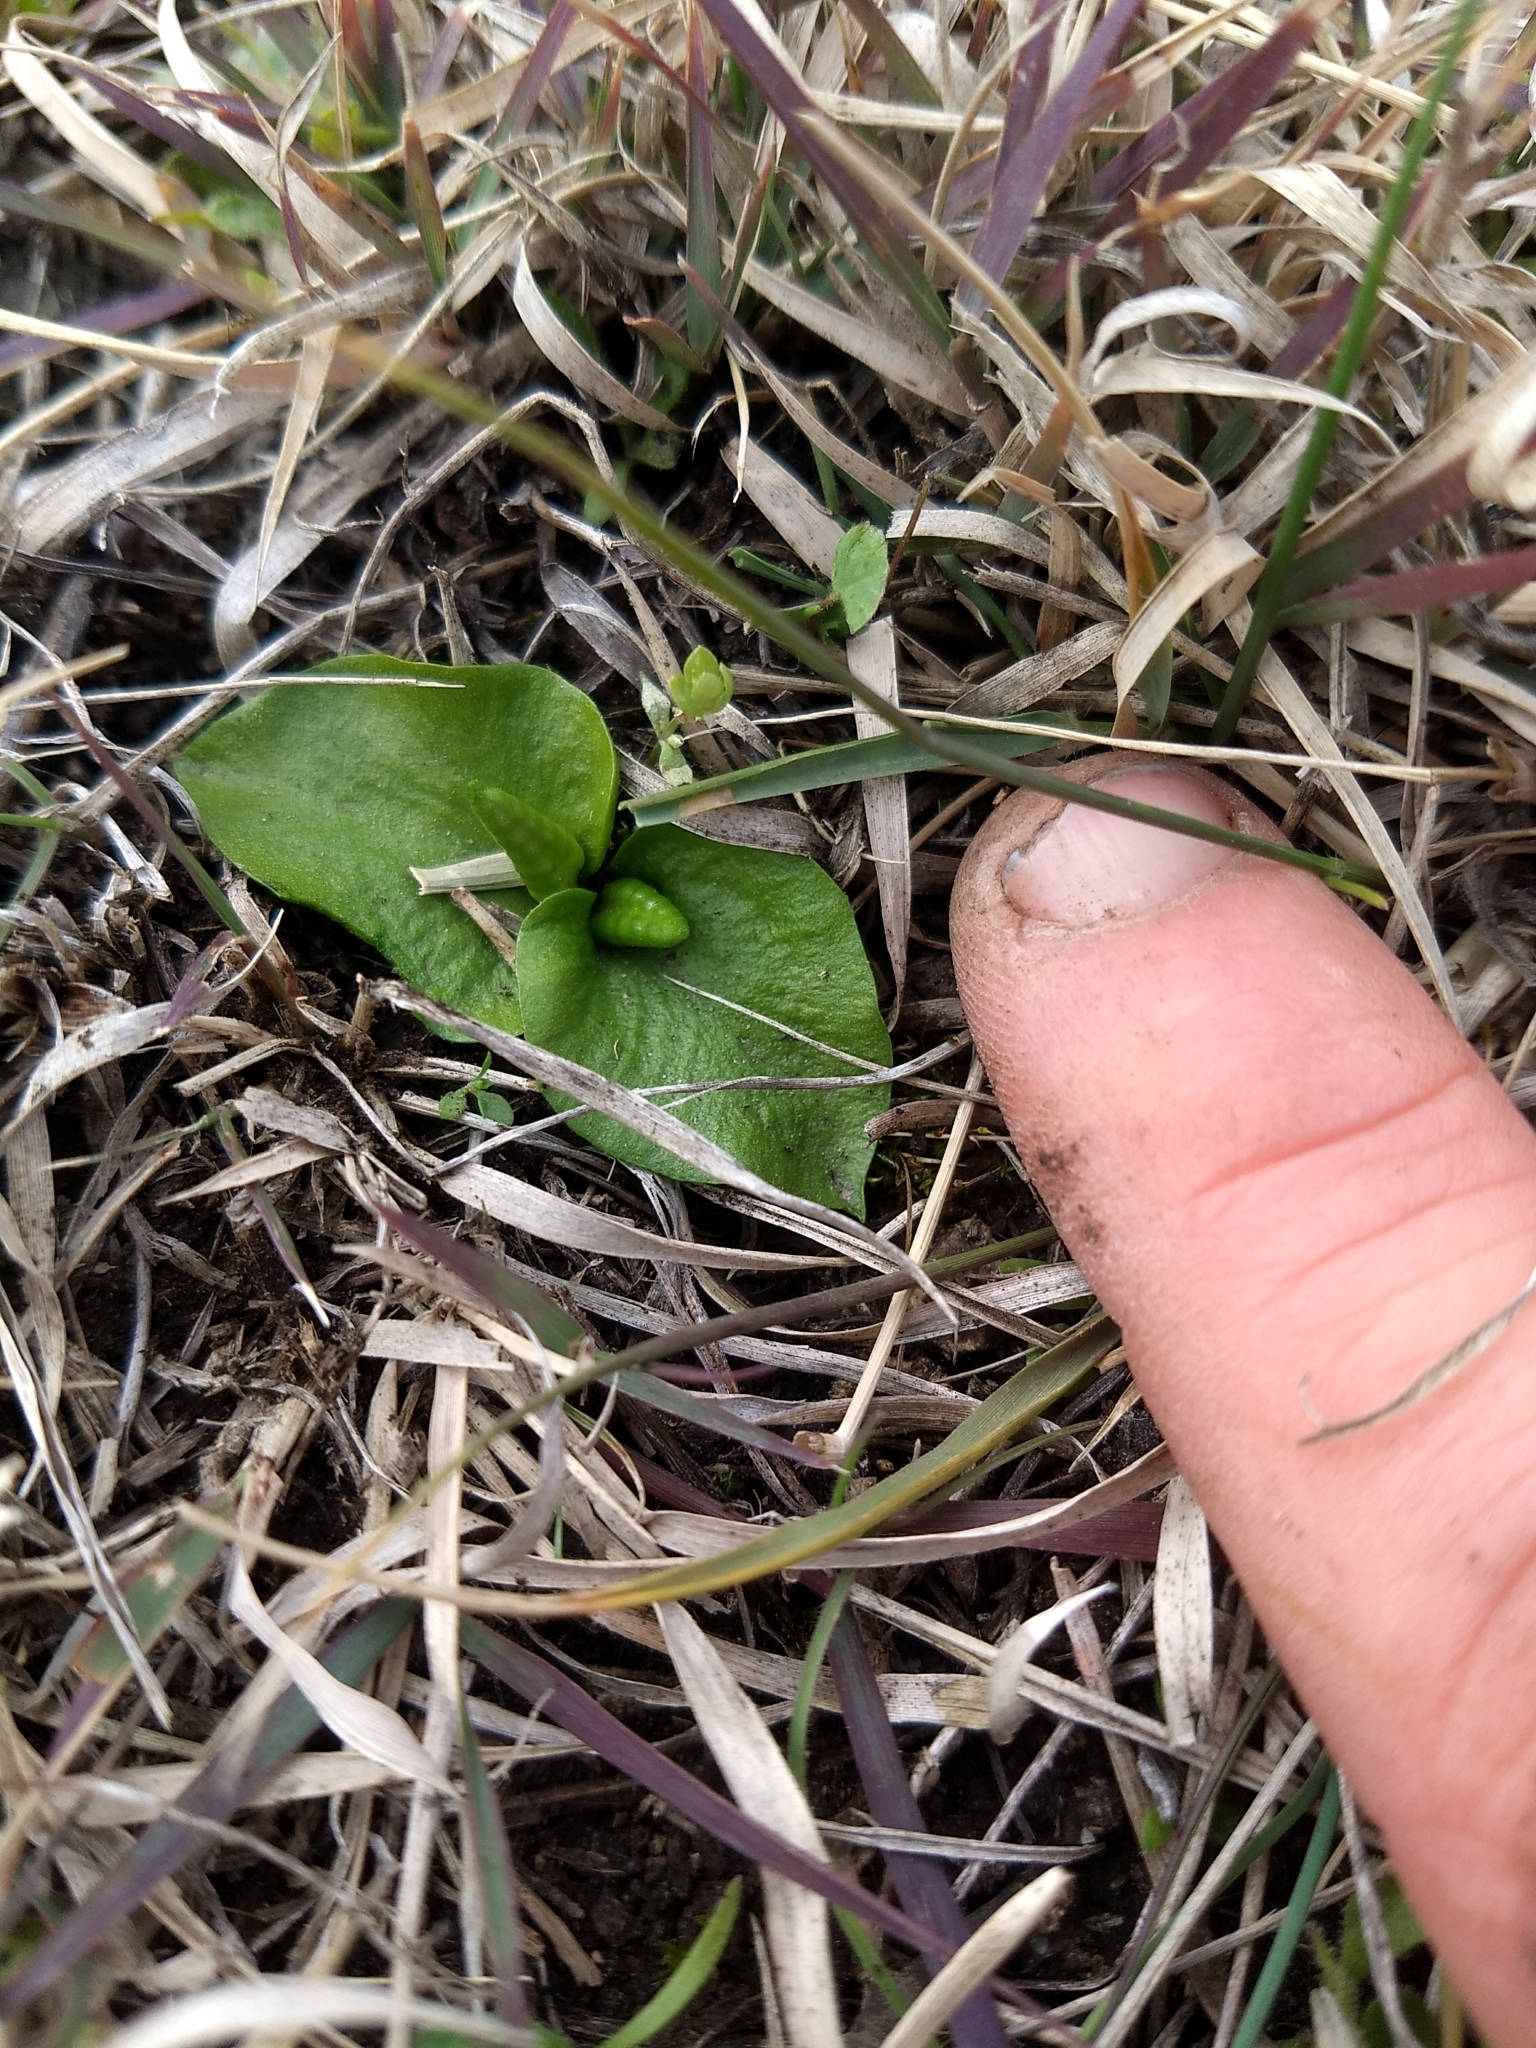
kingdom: Plantae
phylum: Tracheophyta
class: Polypodiopsida
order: Ophioglossales
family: Ophioglossaceae
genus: Ophioglossum
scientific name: Ophioglossum crotalophoroides
